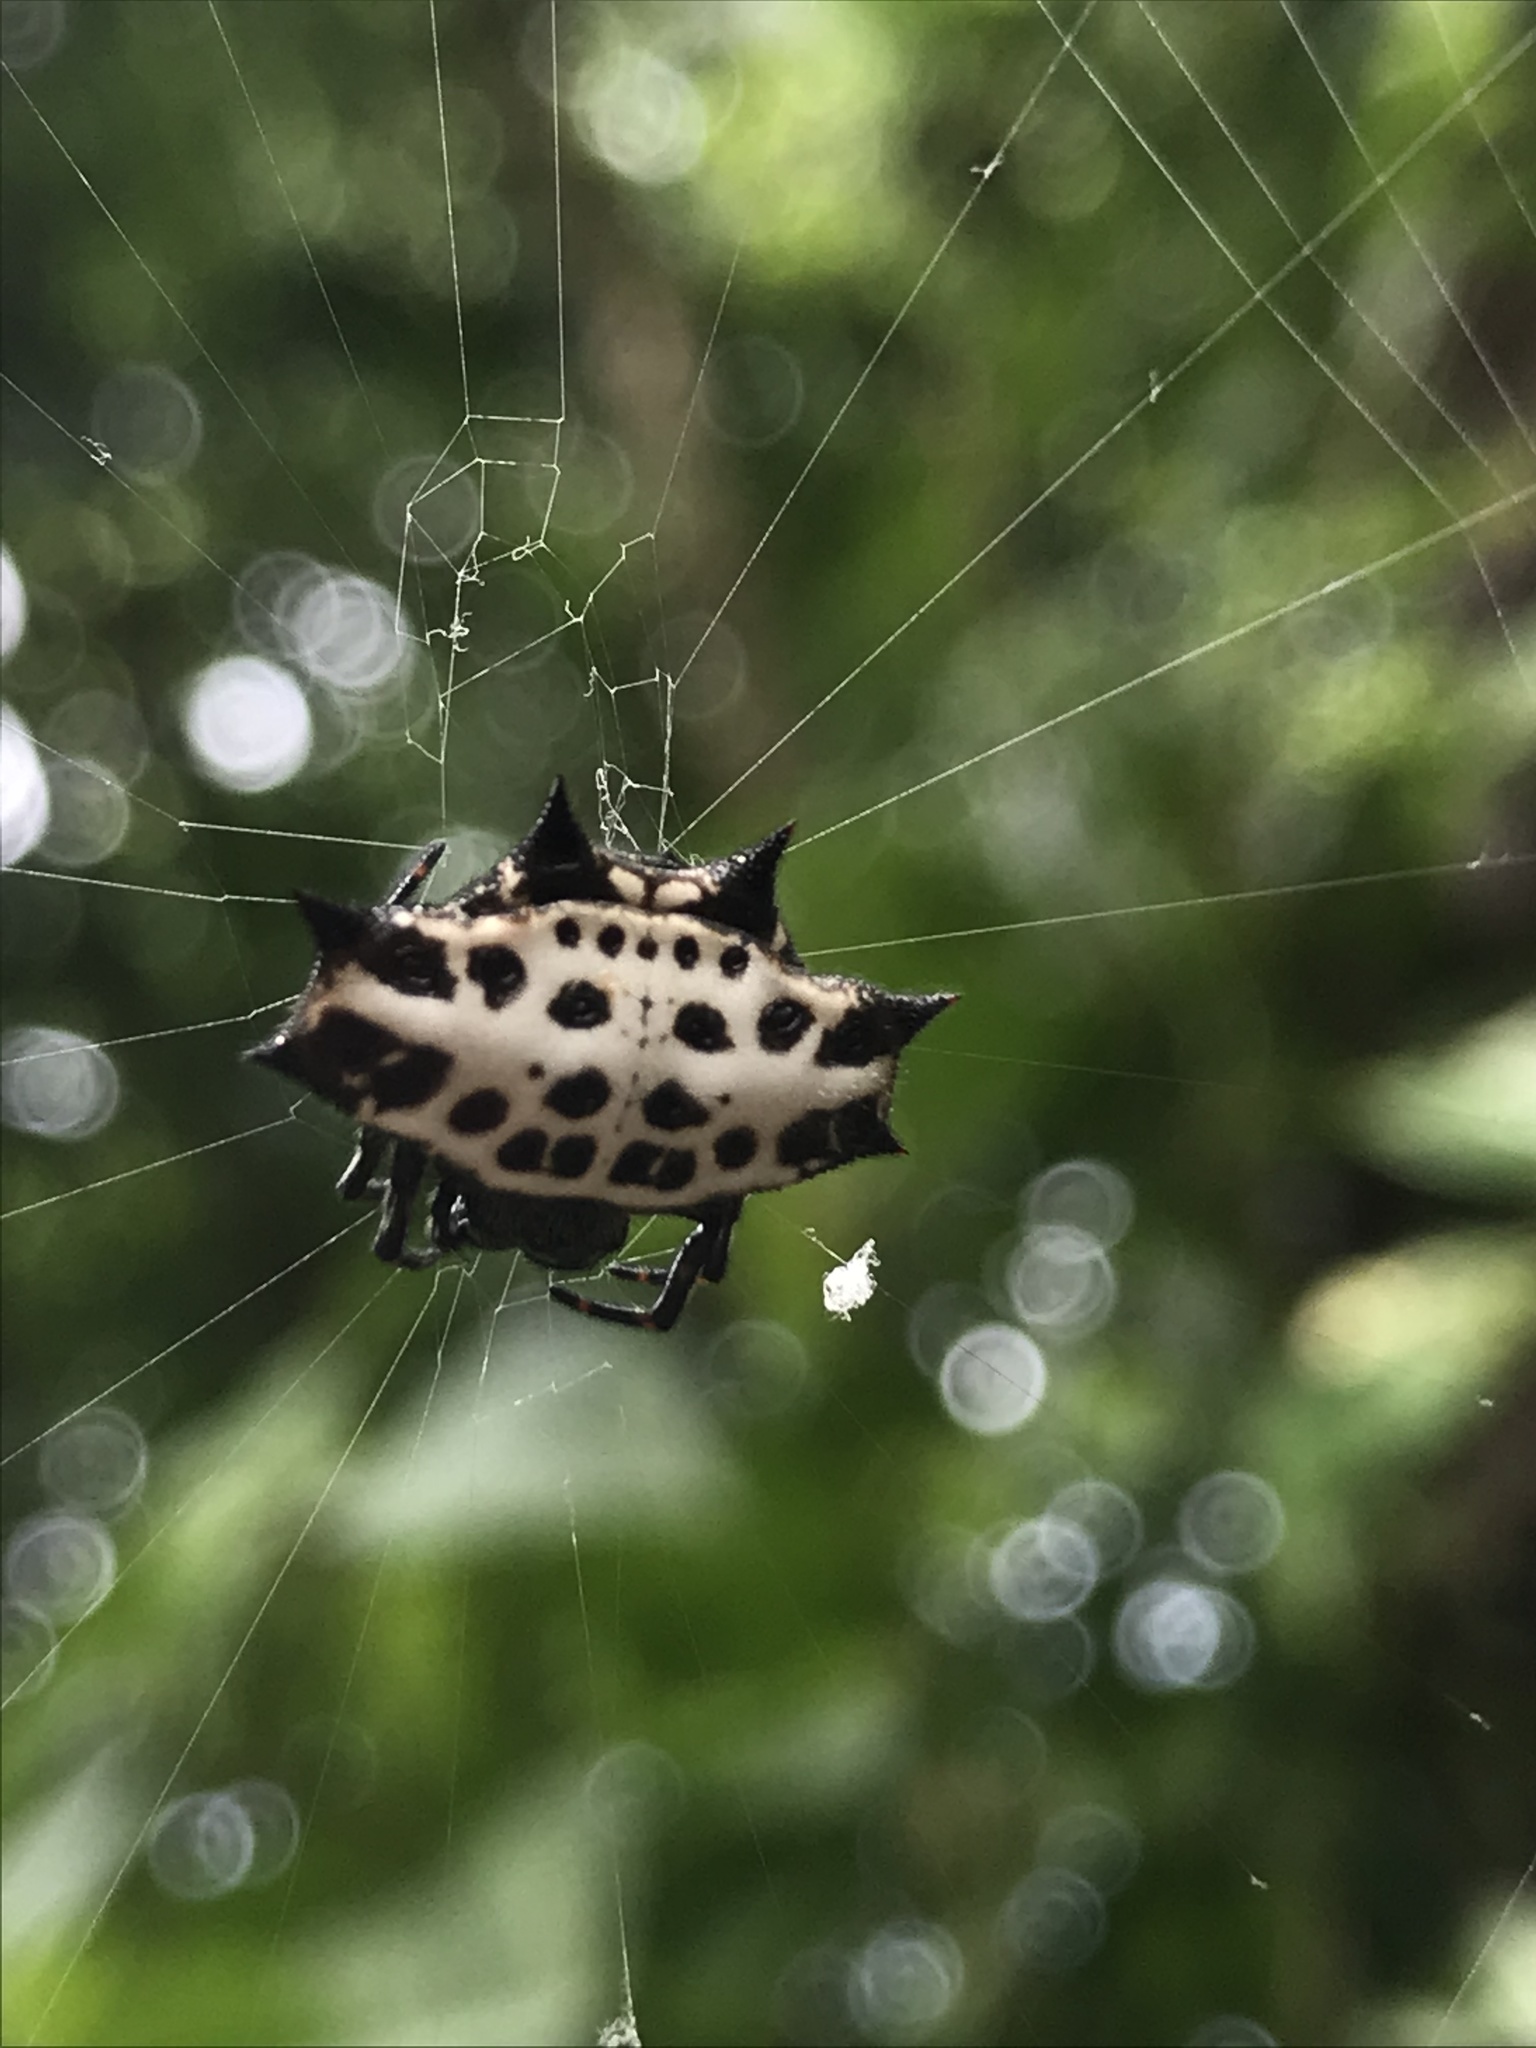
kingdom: Animalia
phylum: Arthropoda
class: Arachnida
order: Araneae
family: Araneidae
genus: Gasteracantha
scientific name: Gasteracantha cancriformis
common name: Orb weavers
